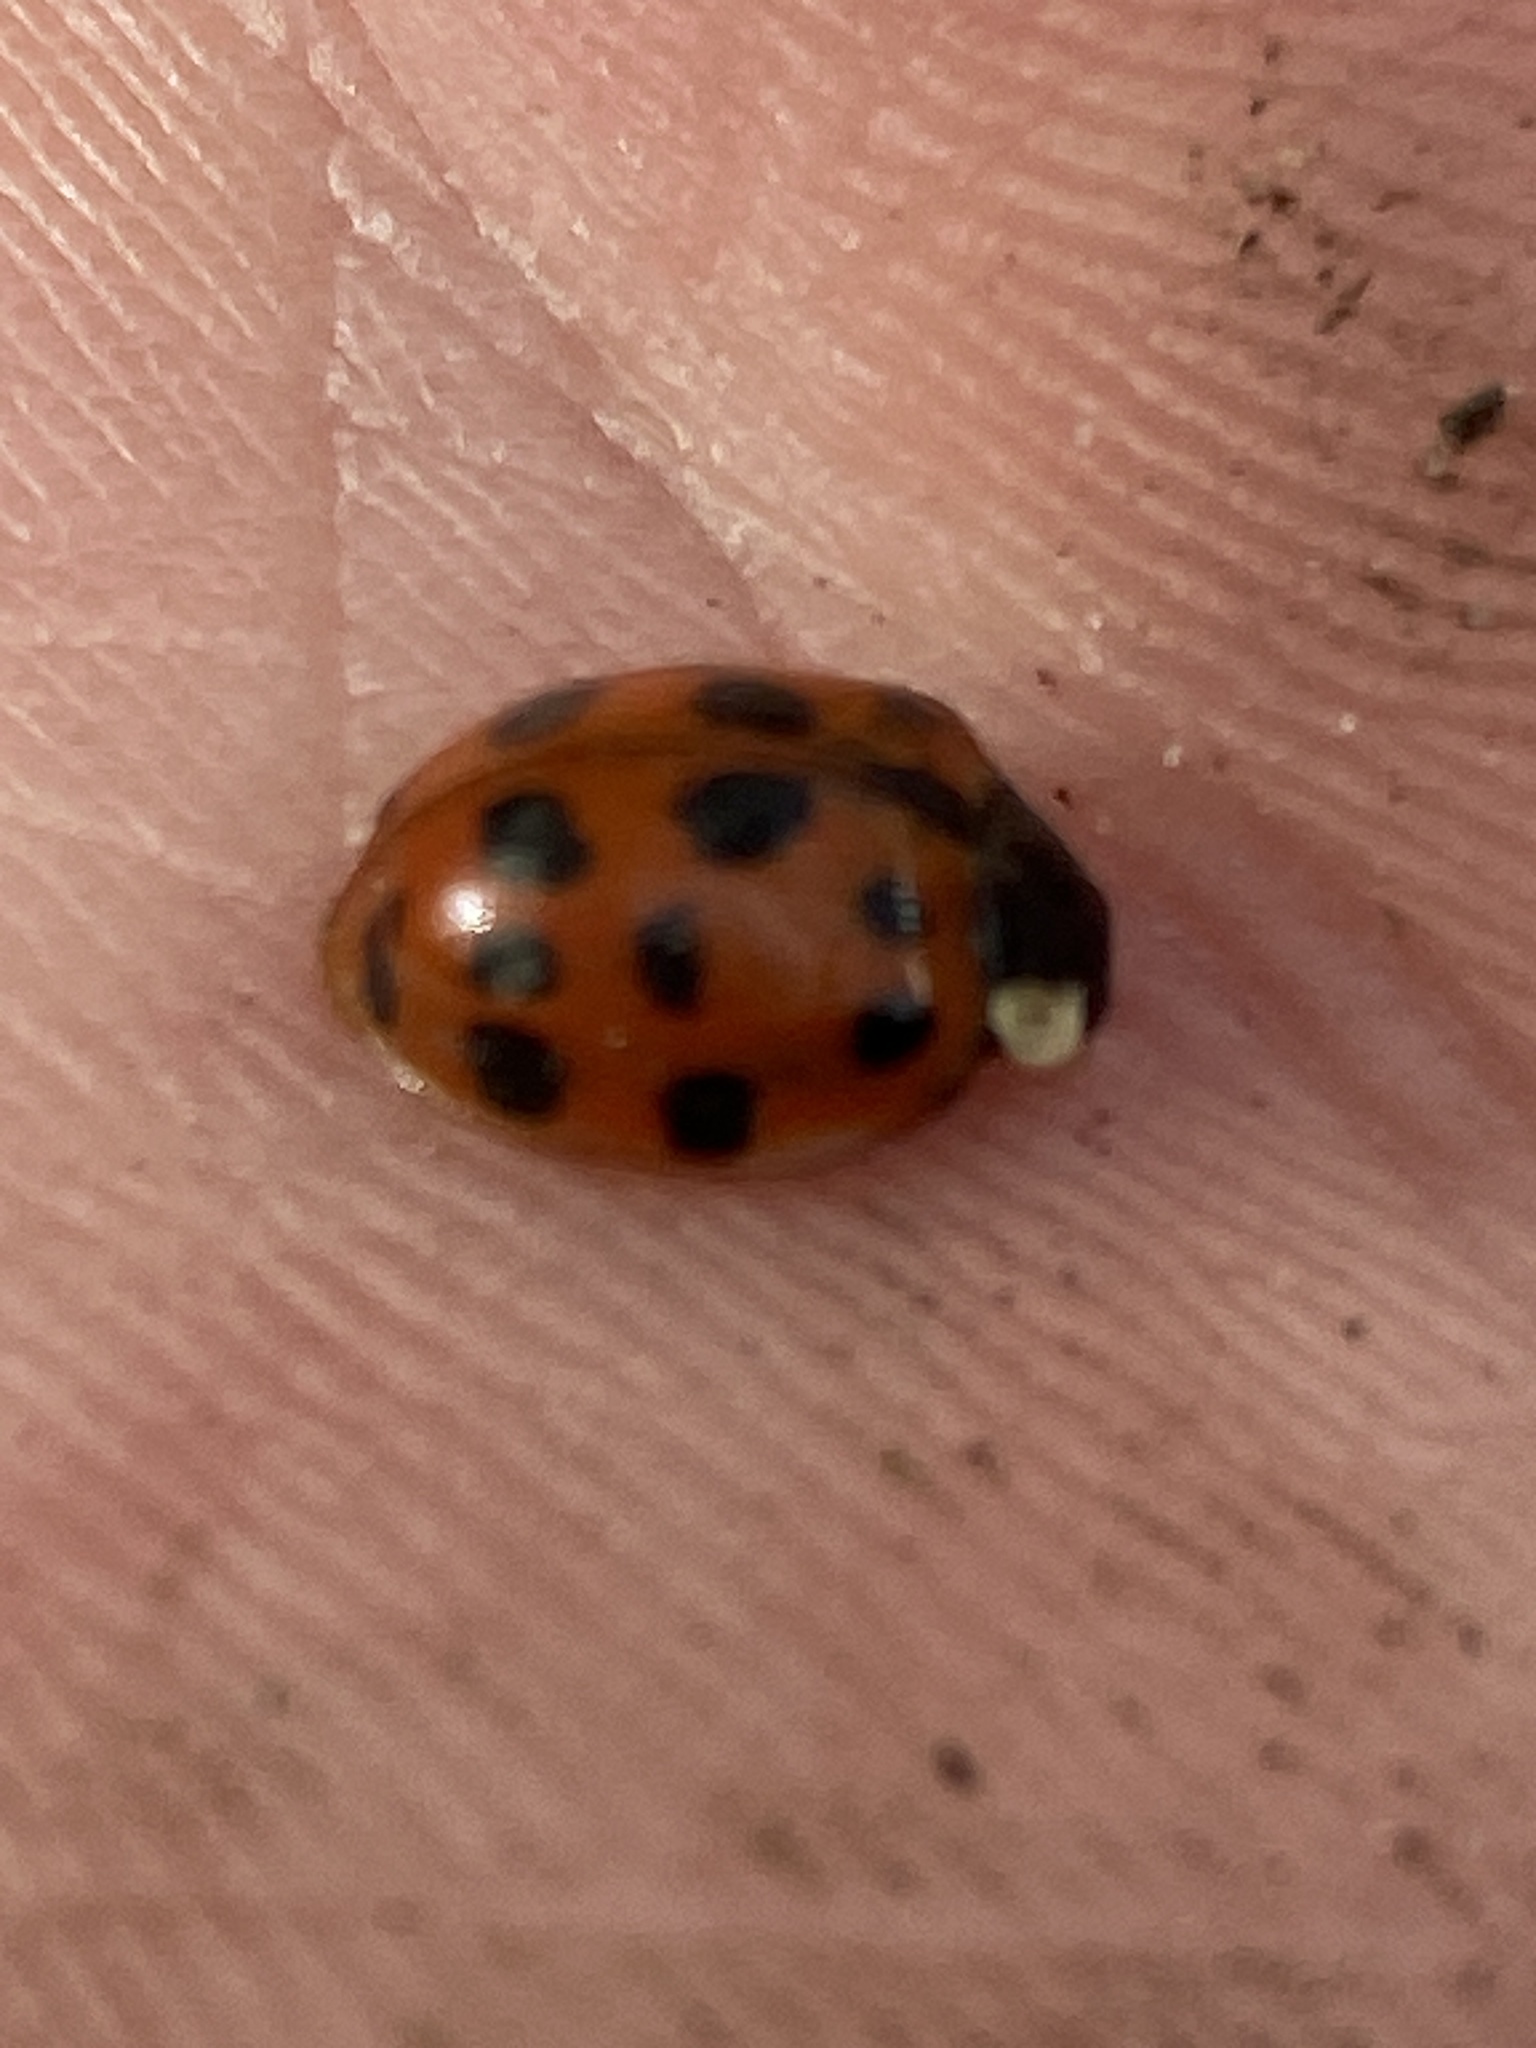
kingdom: Animalia
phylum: Arthropoda
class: Insecta
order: Coleoptera
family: Coccinellidae
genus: Harmonia
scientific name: Harmonia axyridis
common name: Harlequin ladybird
